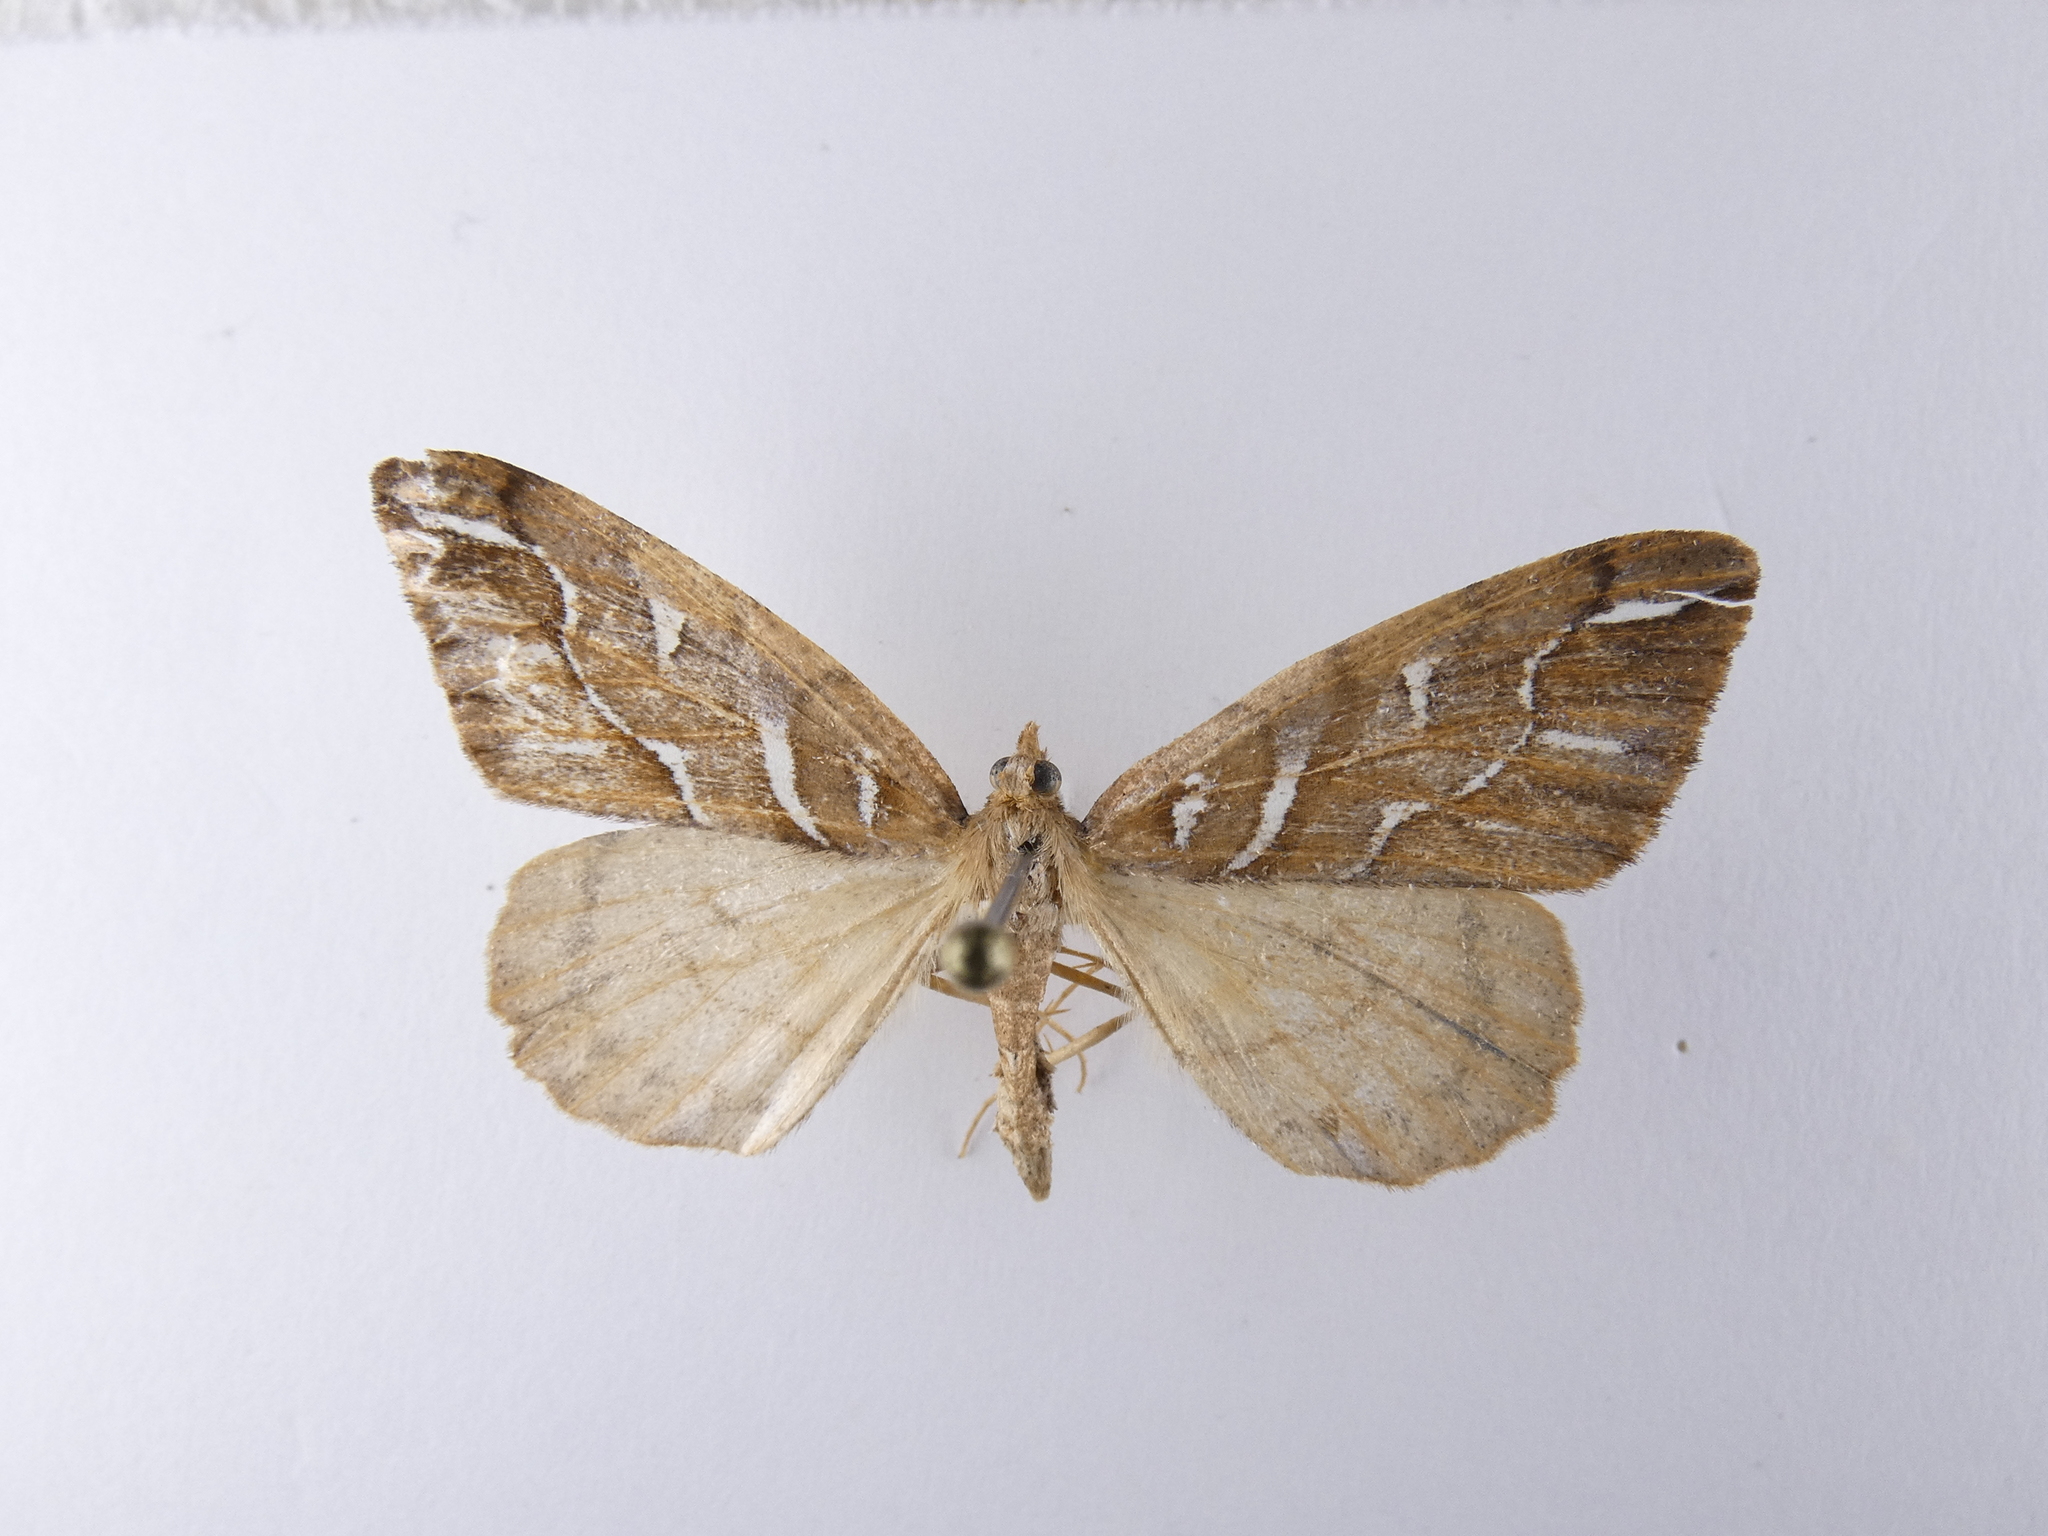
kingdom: Animalia
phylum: Arthropoda
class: Insecta
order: Lepidoptera
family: Geometridae
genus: Chalastra
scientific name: Chalastra aristarcha
